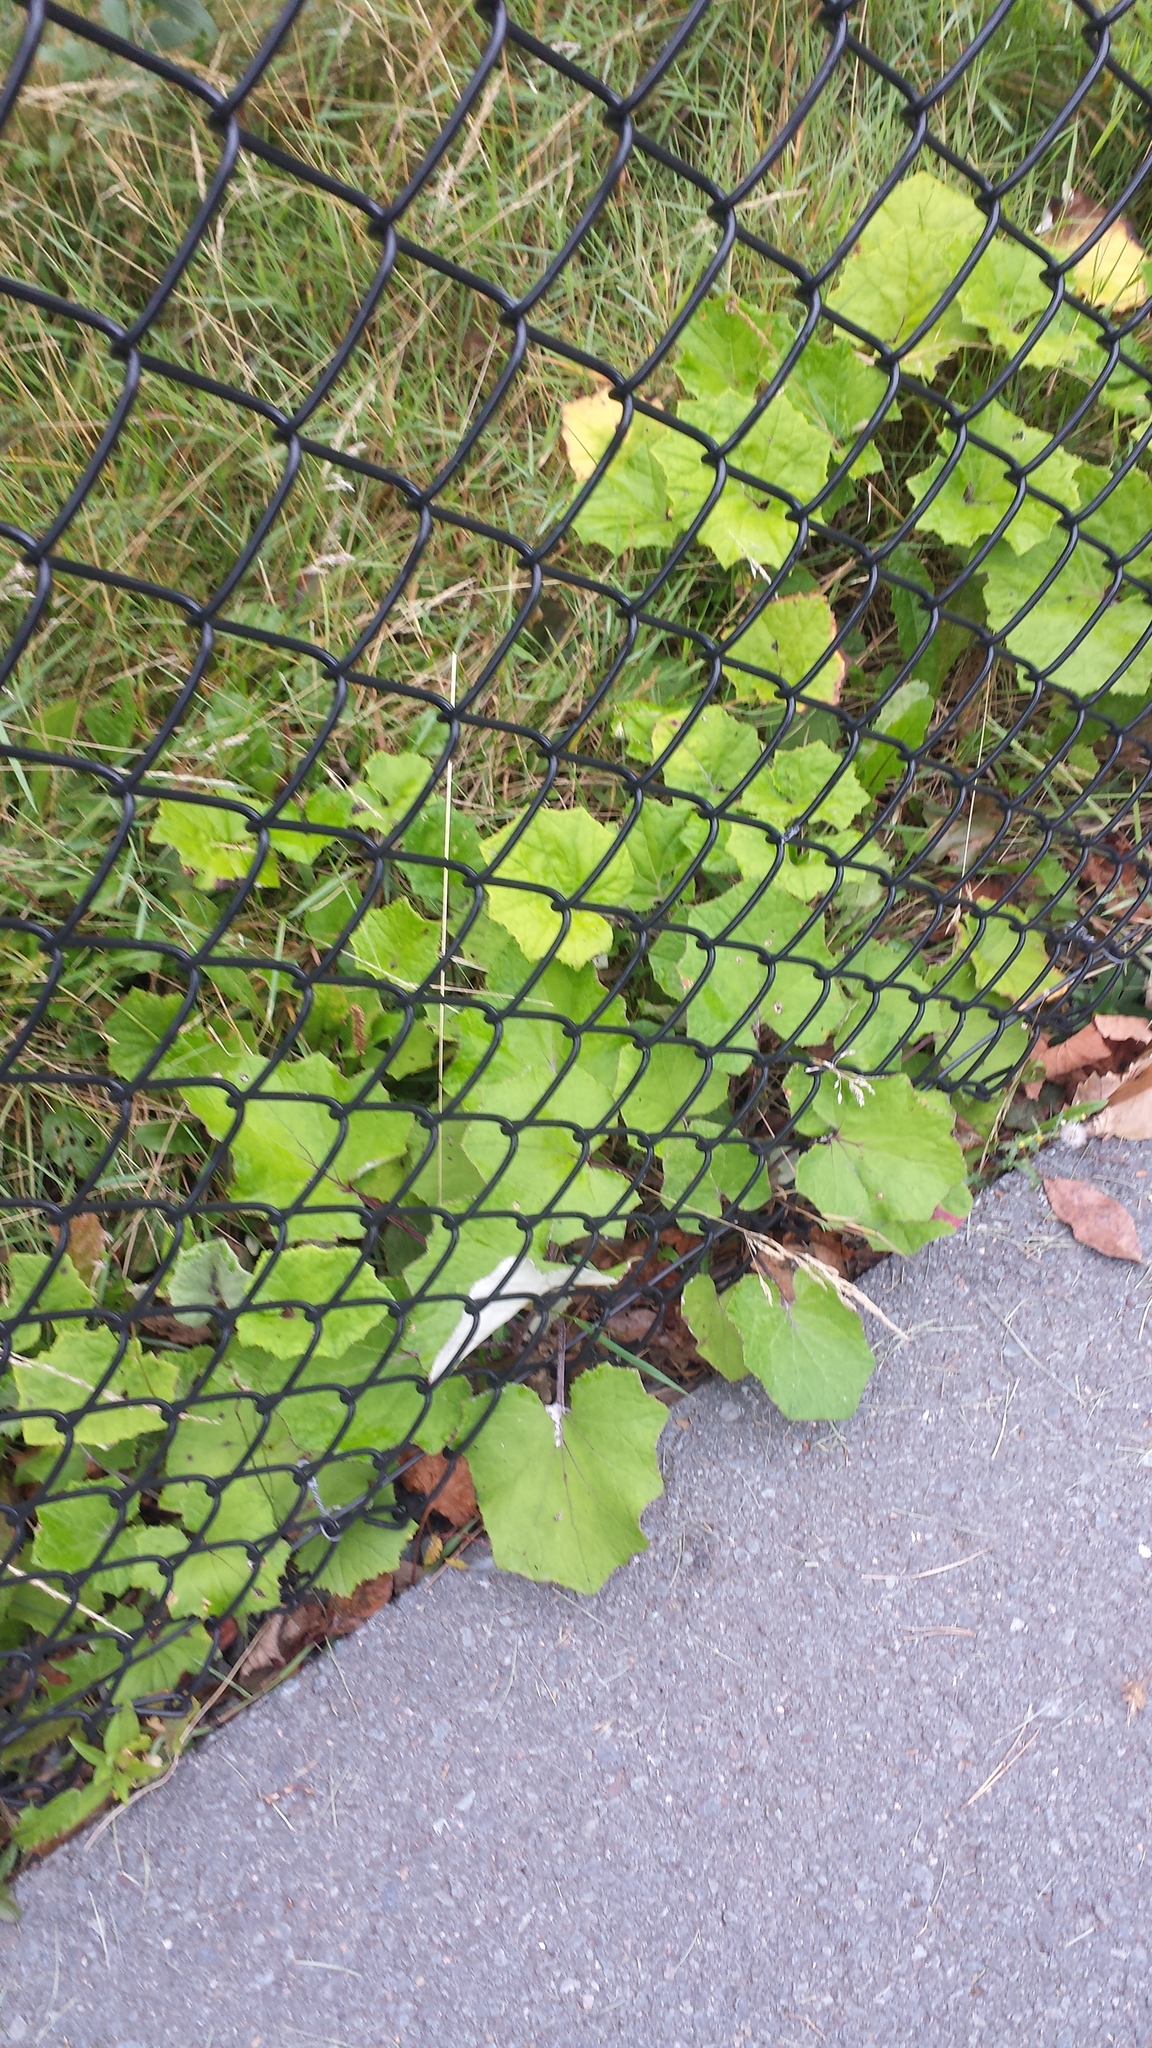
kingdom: Plantae
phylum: Tracheophyta
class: Magnoliopsida
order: Asterales
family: Asteraceae
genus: Tussilago
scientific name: Tussilago farfara
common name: Coltsfoot
